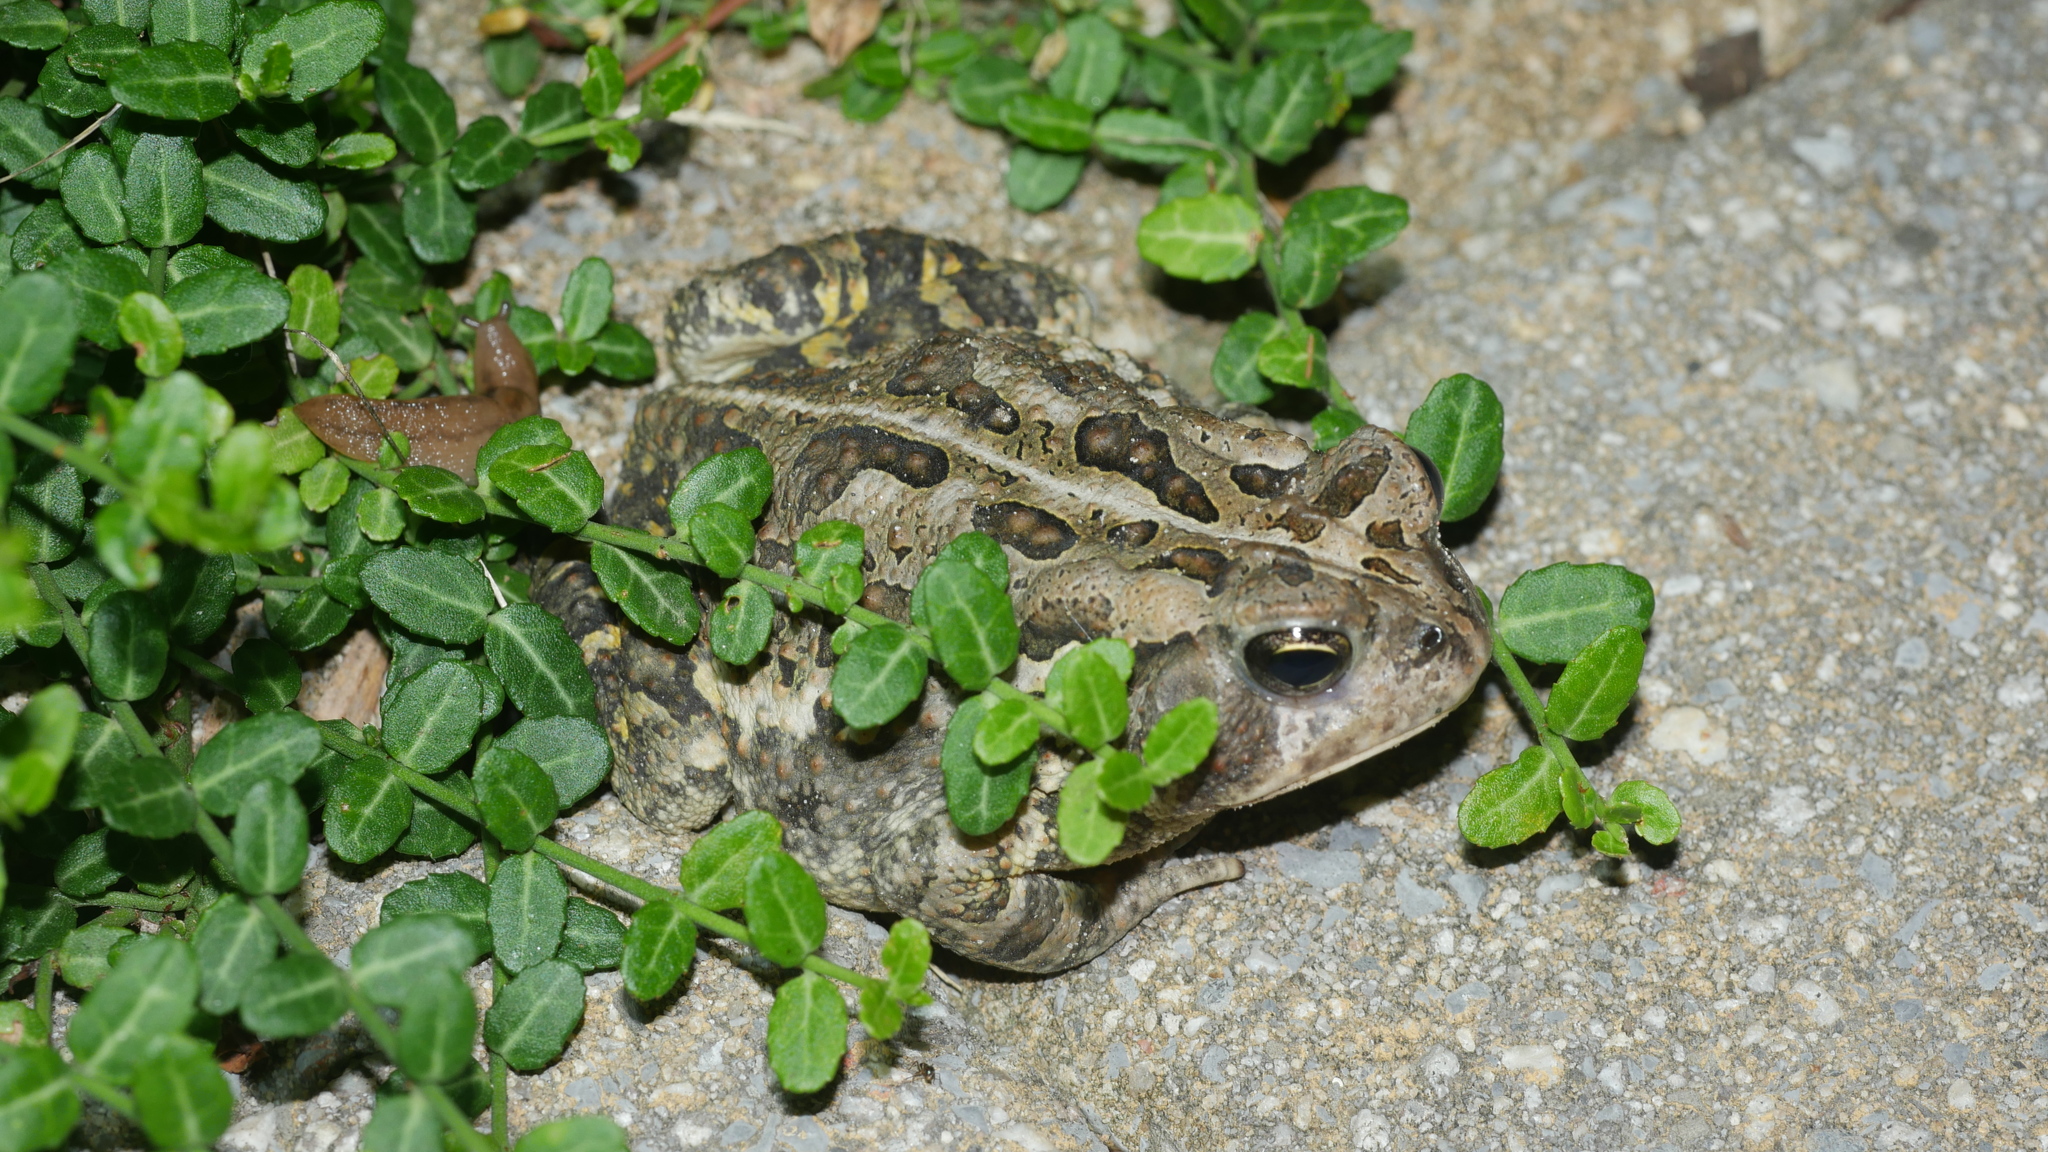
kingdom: Animalia
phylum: Chordata
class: Amphibia
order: Anura
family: Bufonidae
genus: Anaxyrus
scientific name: Anaxyrus fowleri
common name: Fowler's toad
